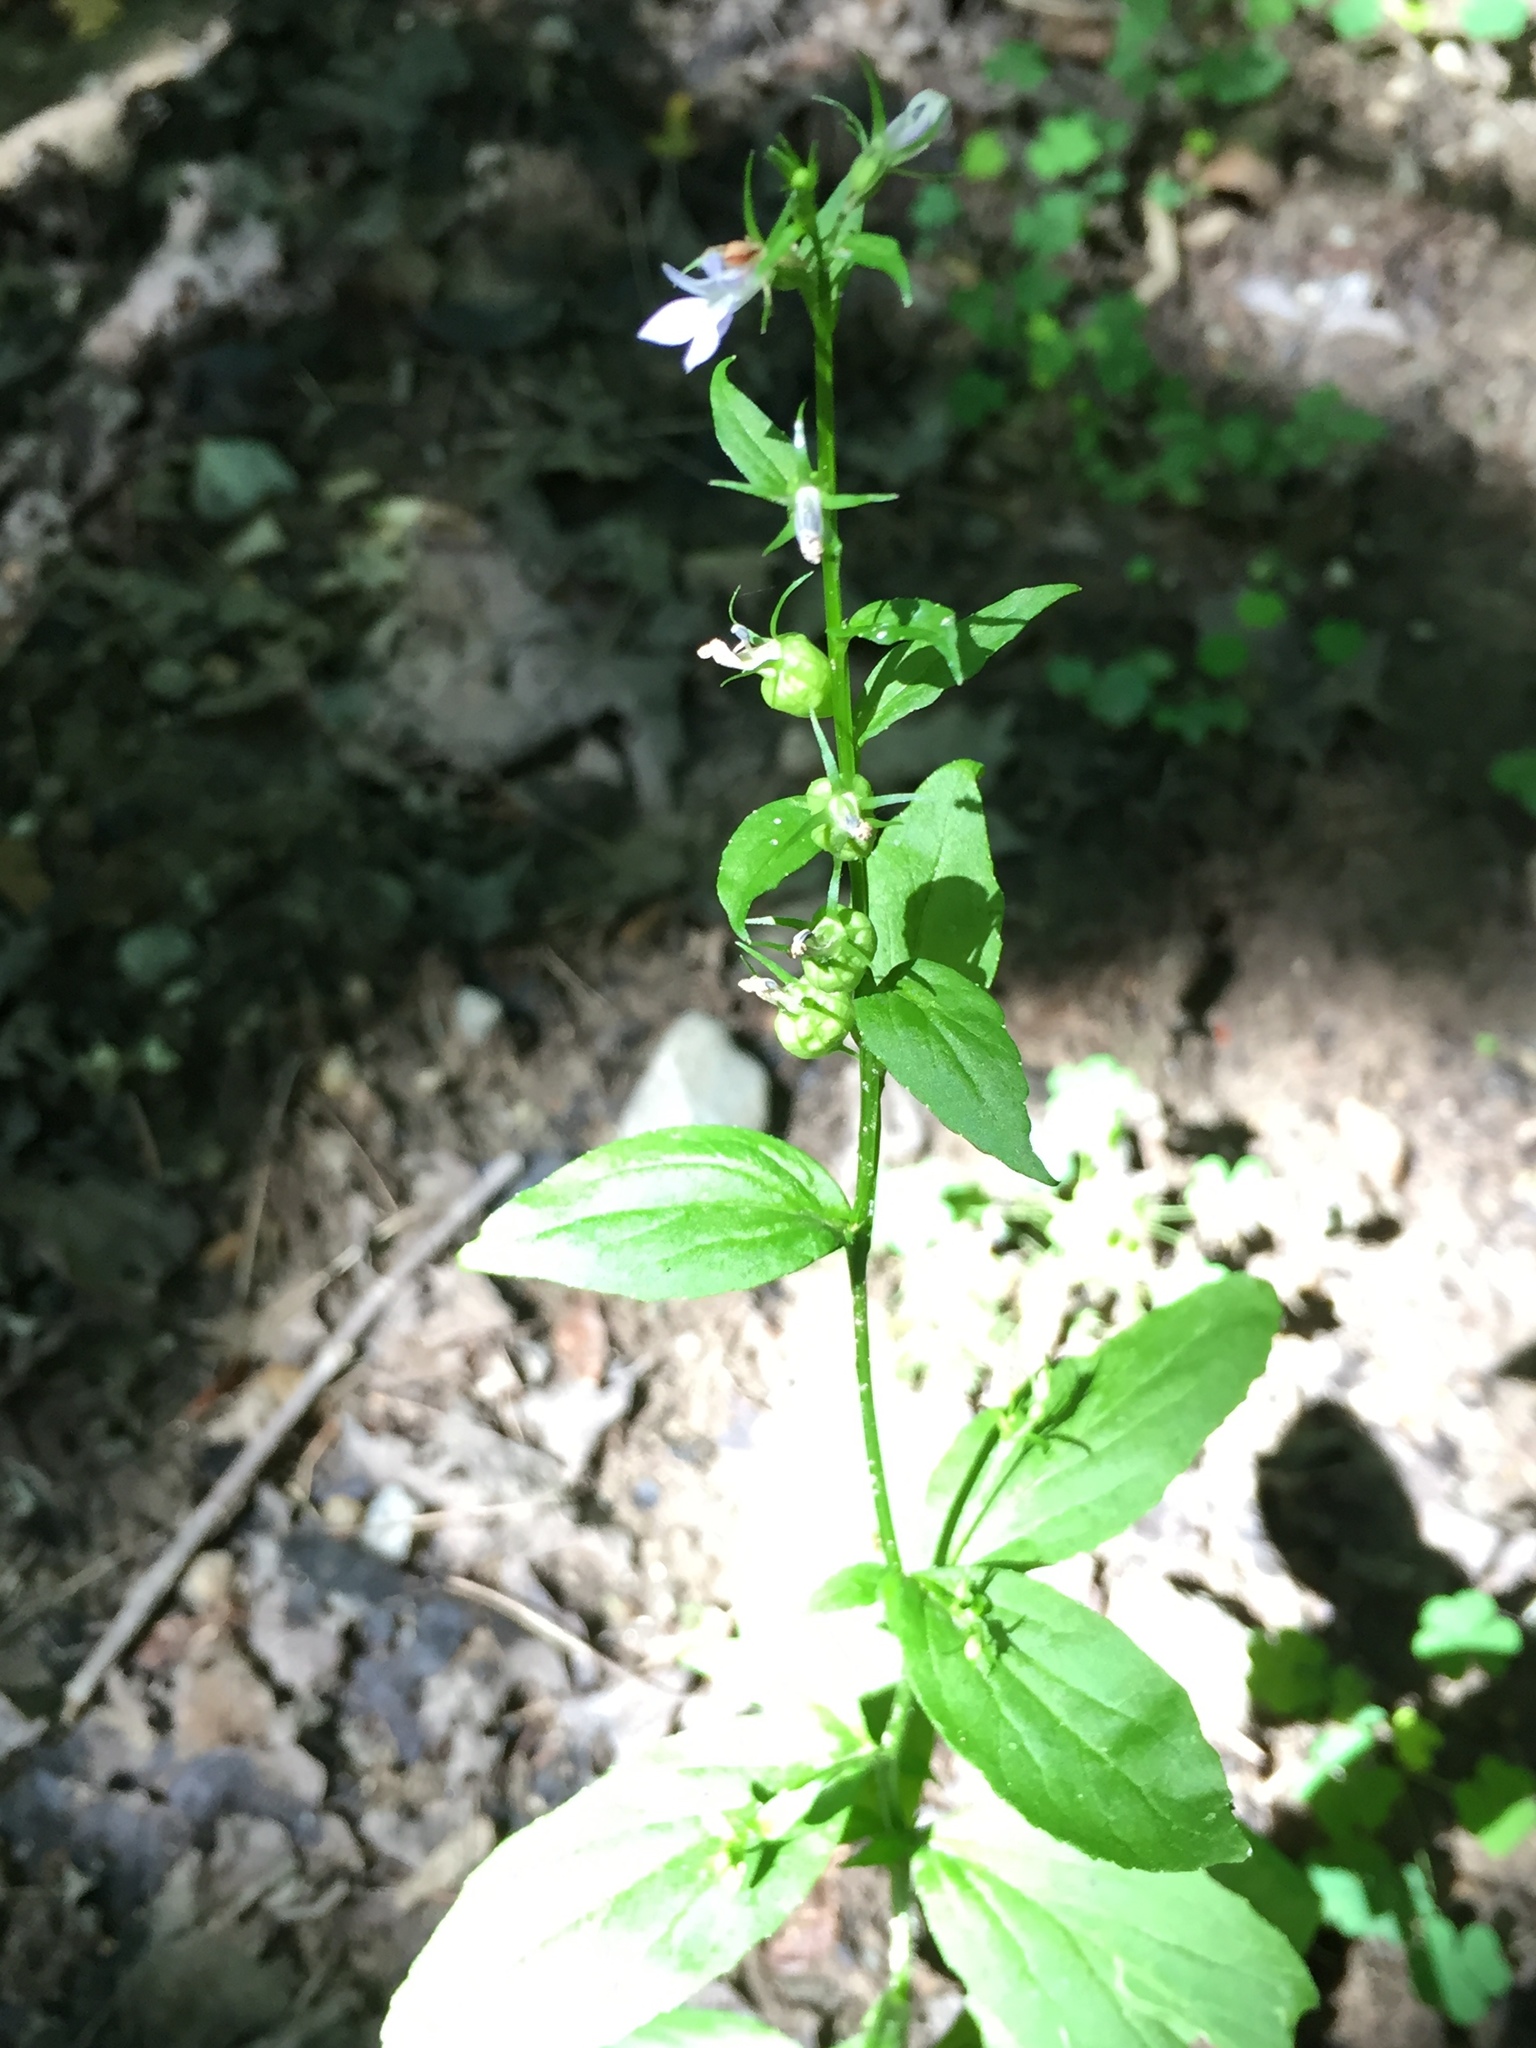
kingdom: Plantae
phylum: Tracheophyta
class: Magnoliopsida
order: Asterales
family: Campanulaceae
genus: Lobelia
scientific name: Lobelia inflata
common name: Indian tobacco
